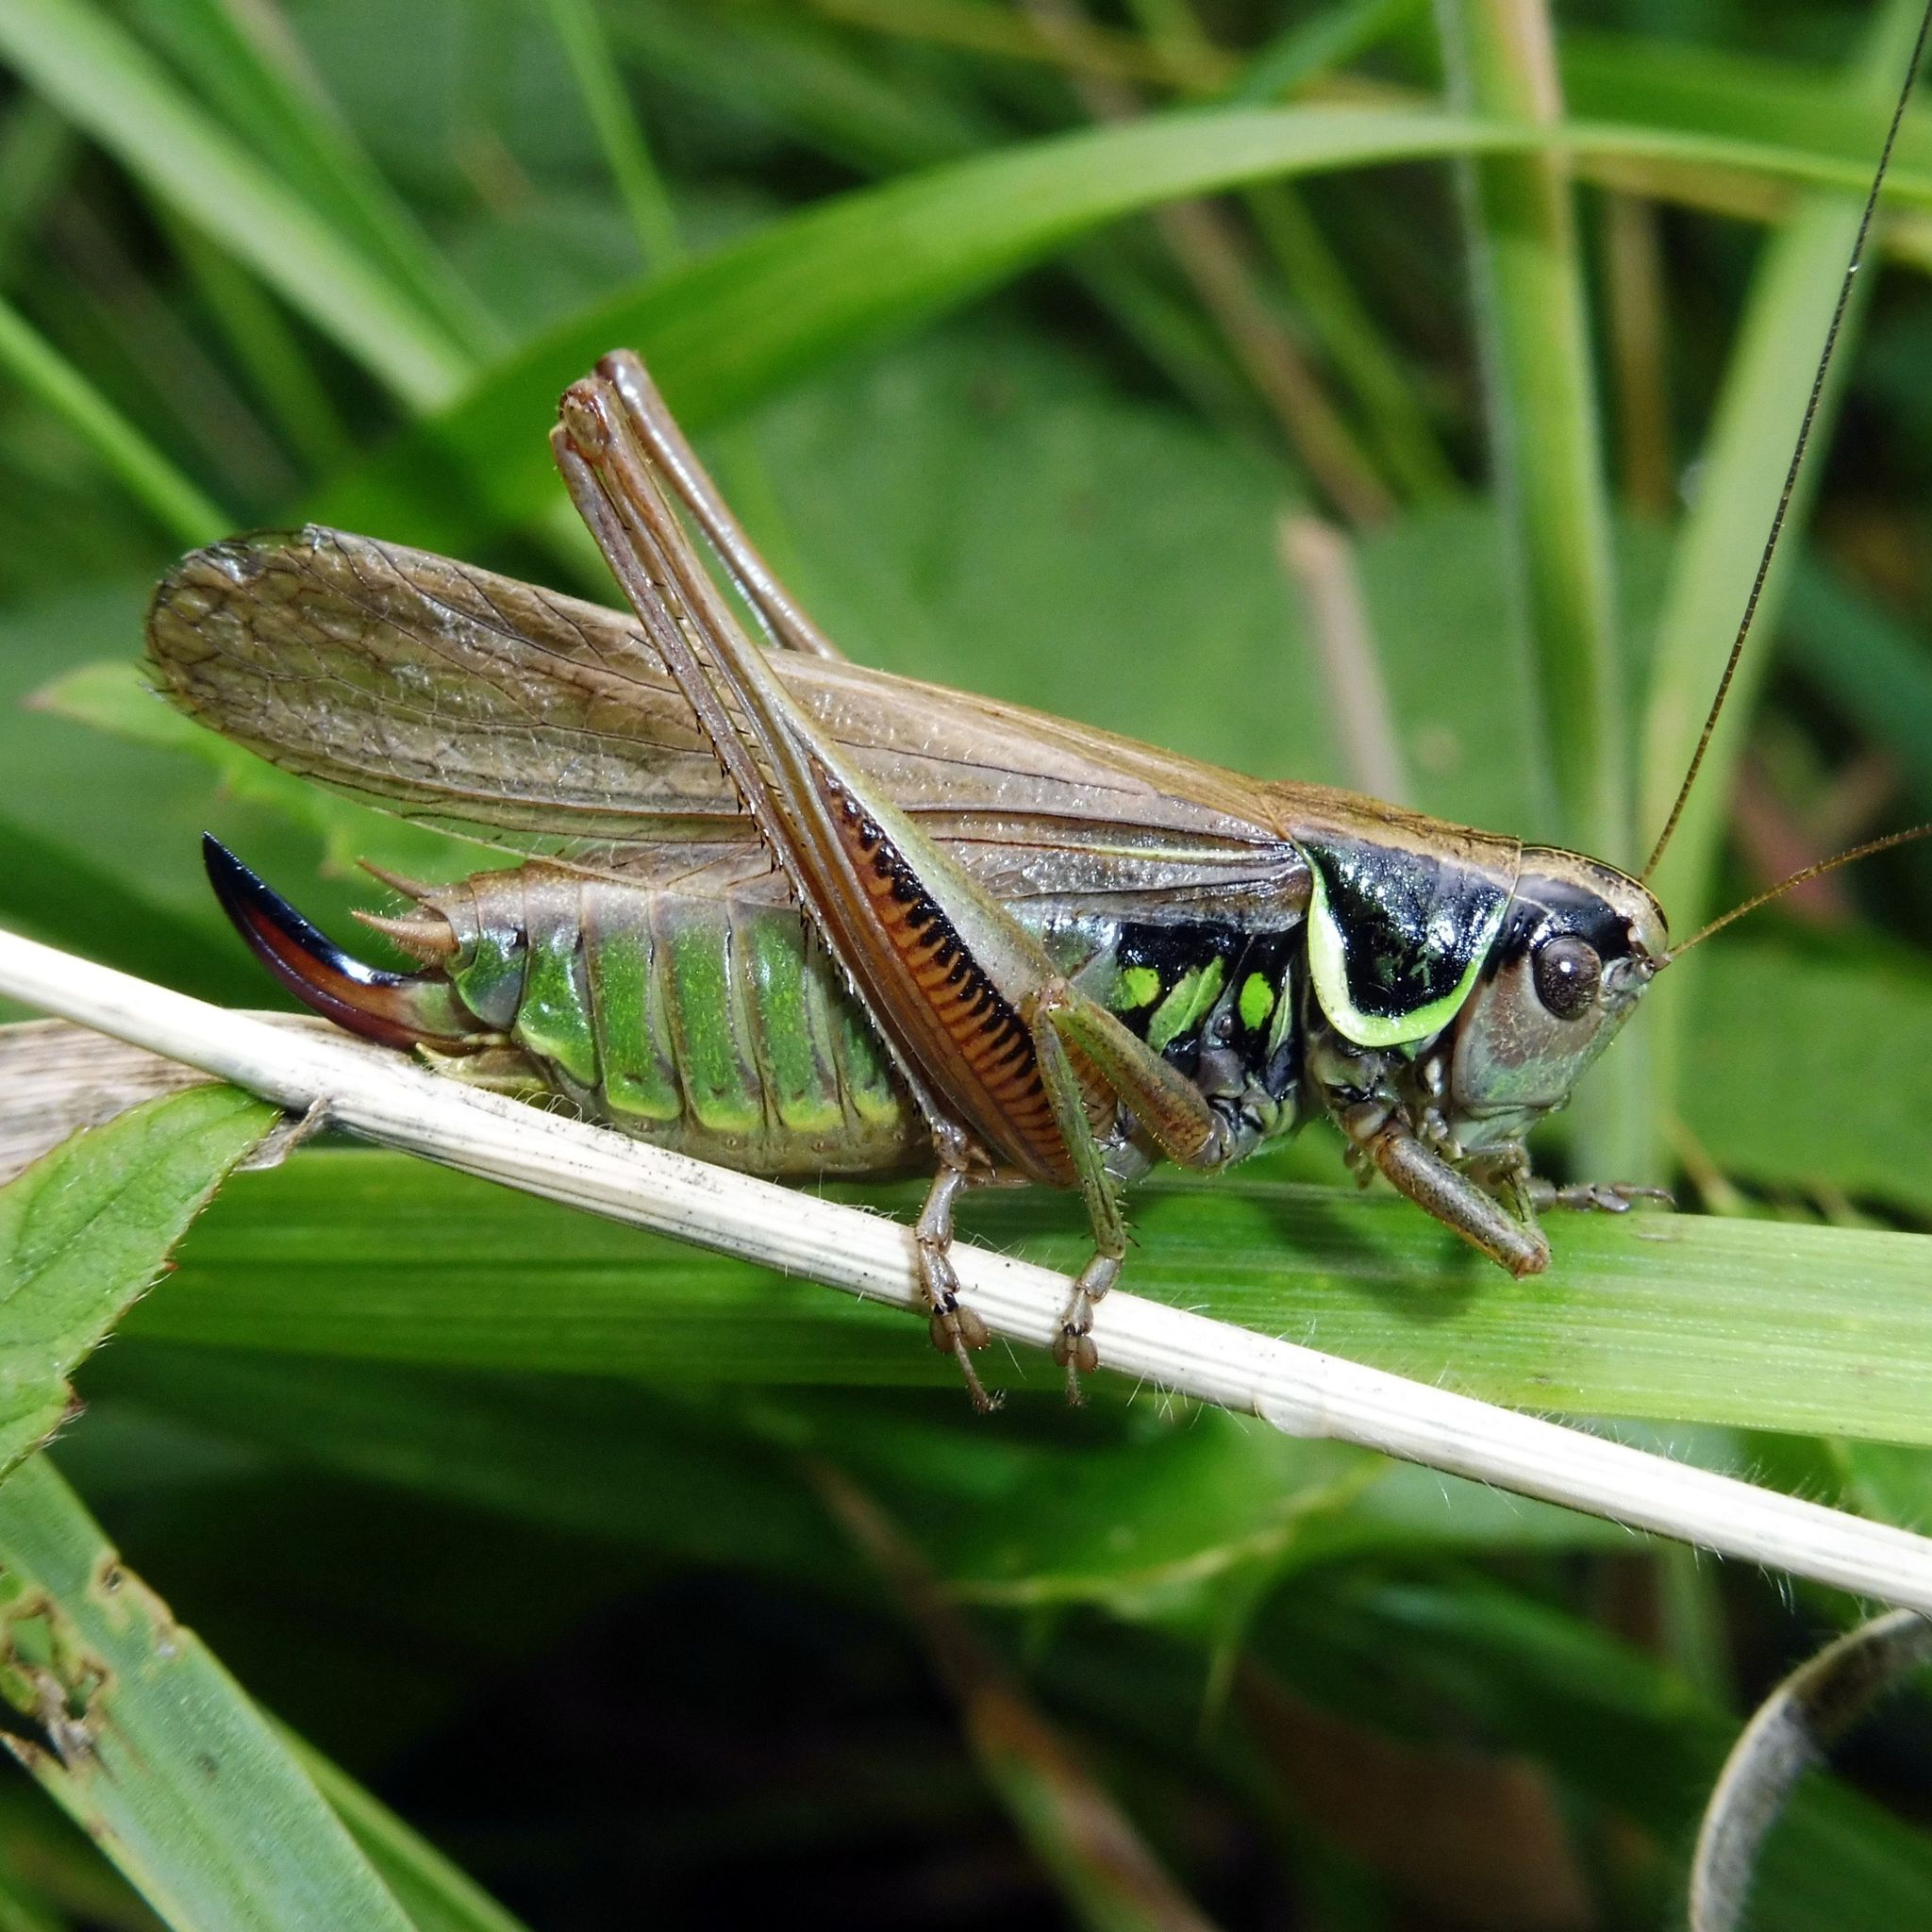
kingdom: Animalia
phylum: Arthropoda
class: Insecta
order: Orthoptera
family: Tettigoniidae
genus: Roeseliana
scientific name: Roeseliana roeselii
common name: Roesel's bush cricket
